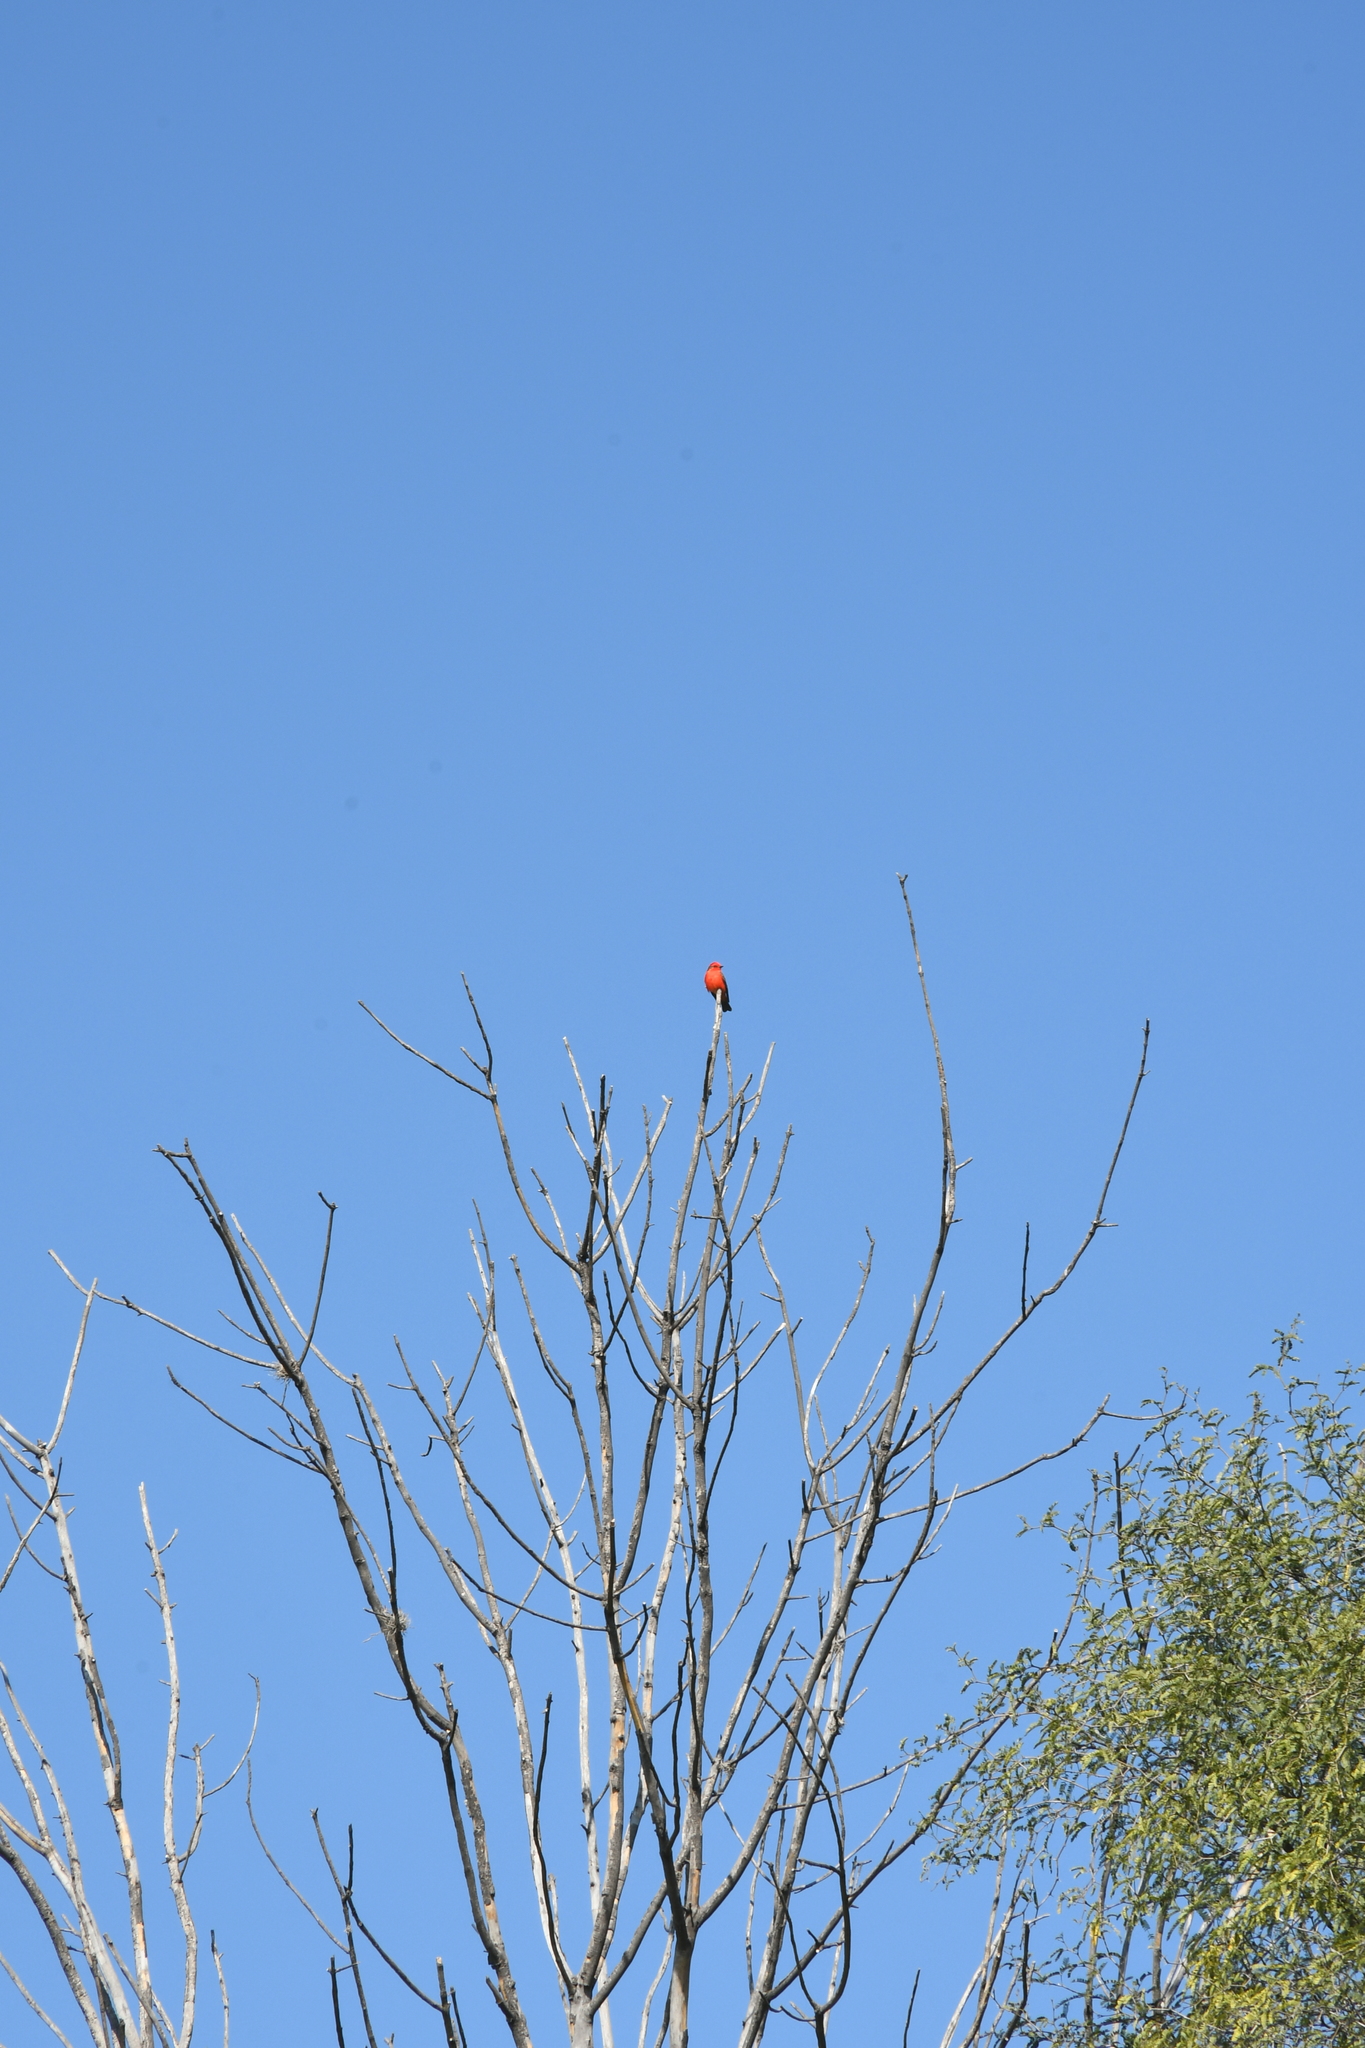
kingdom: Animalia
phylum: Chordata
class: Aves
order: Passeriformes
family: Tyrannidae
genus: Pyrocephalus
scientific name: Pyrocephalus rubinus
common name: Vermilion flycatcher
